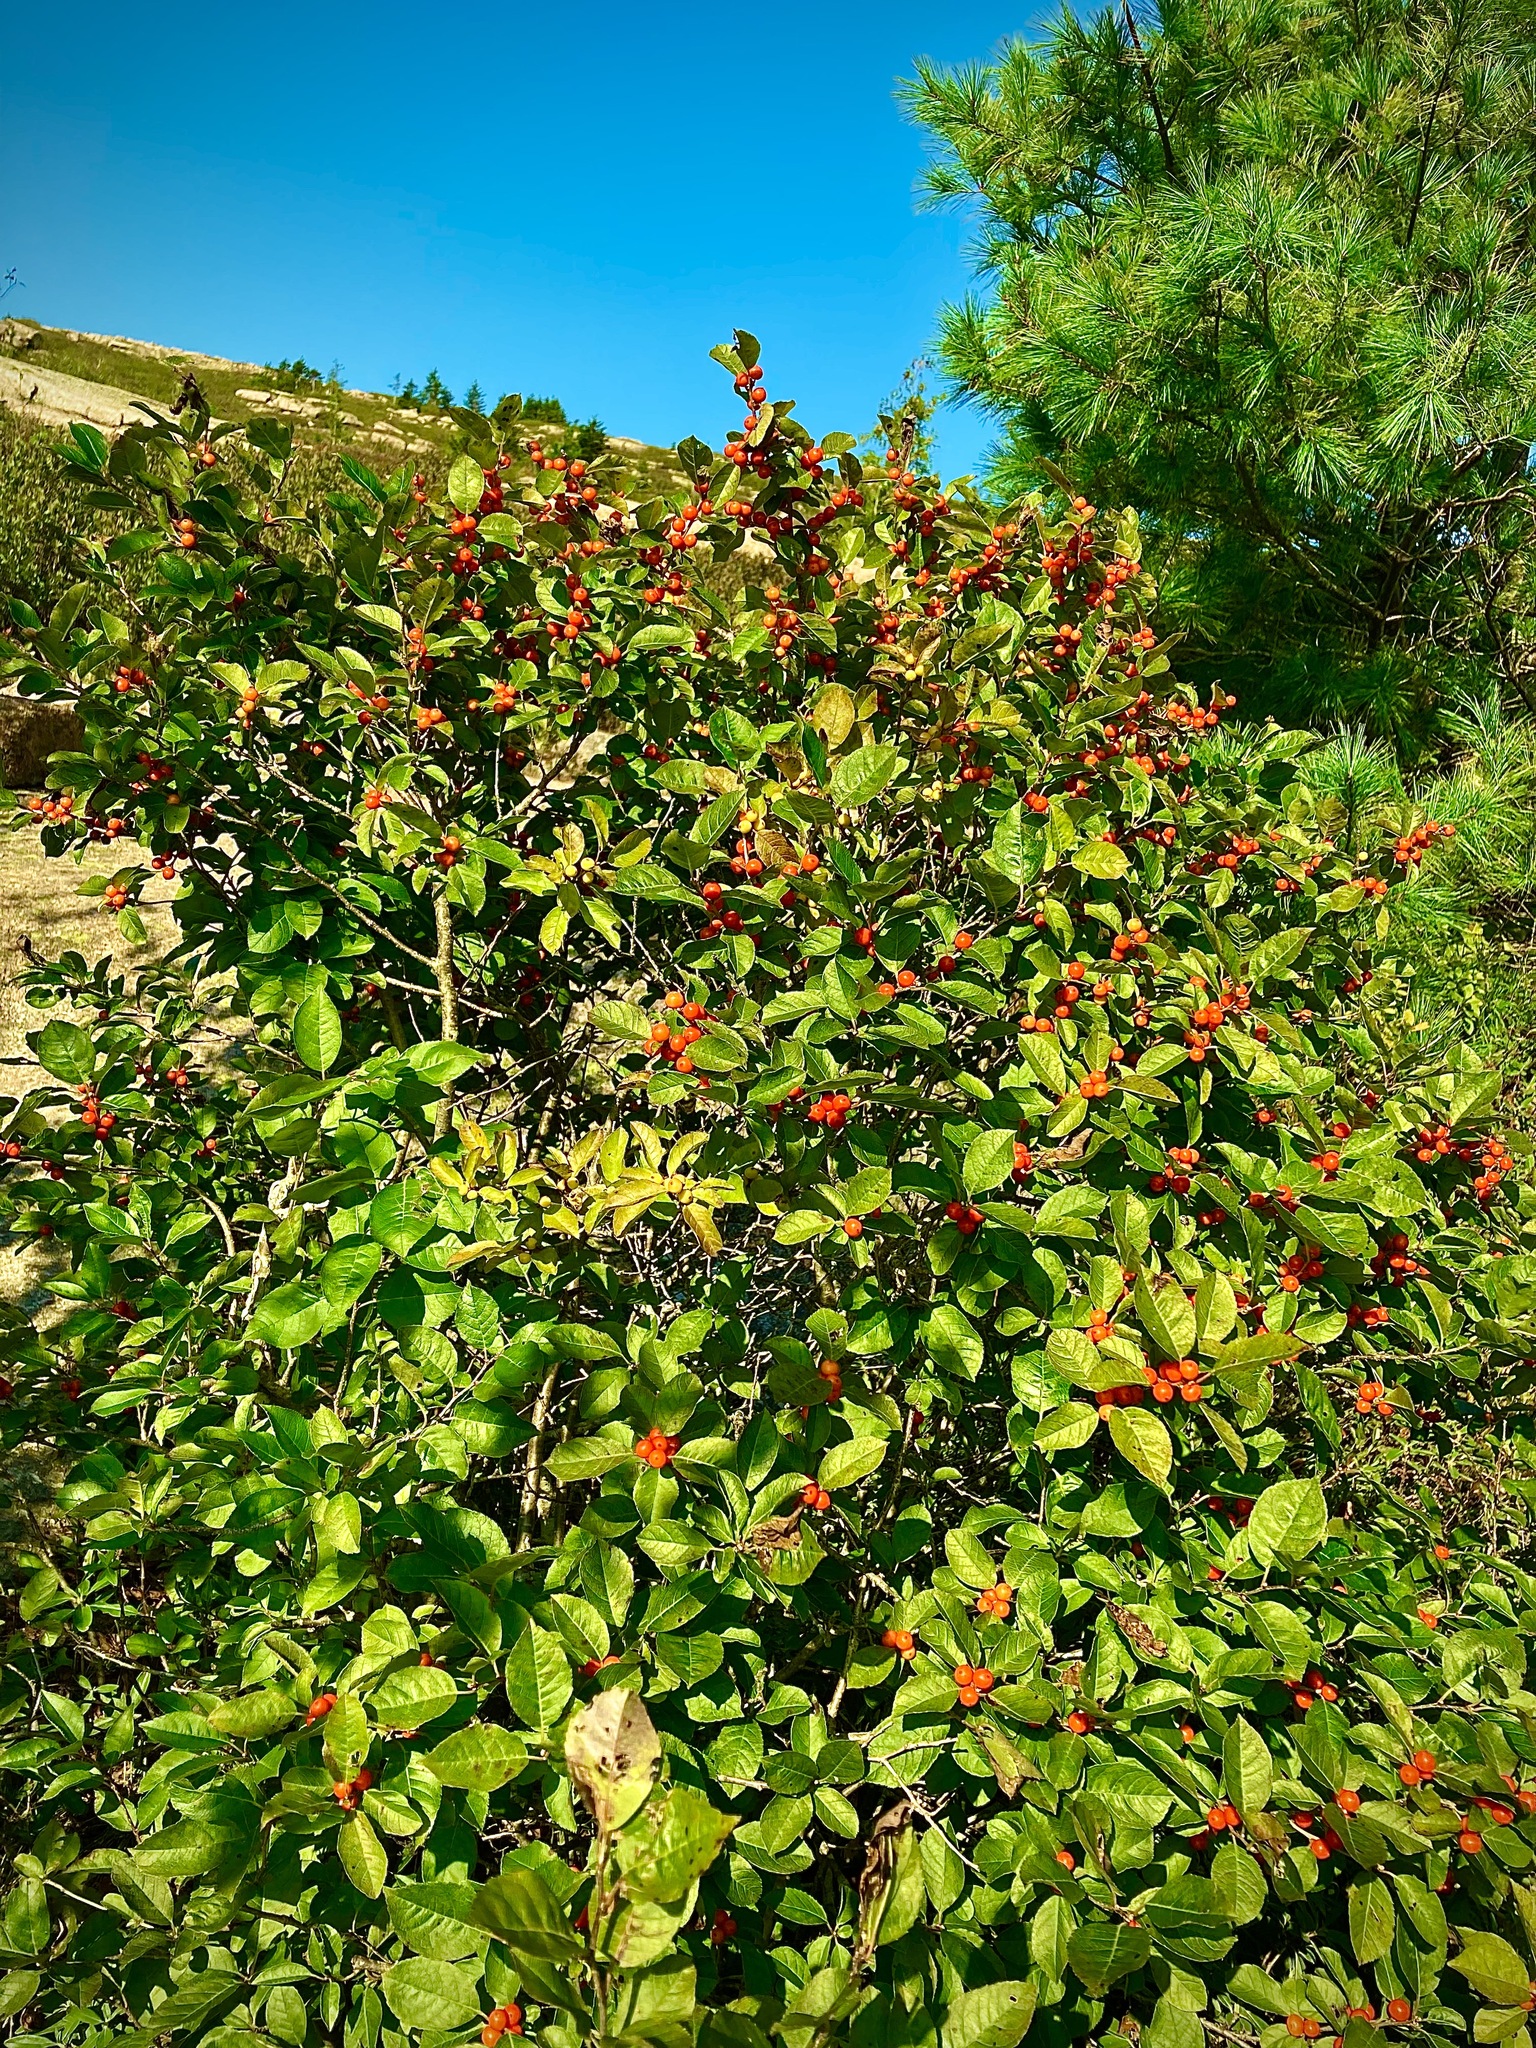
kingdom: Plantae
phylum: Tracheophyta
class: Magnoliopsida
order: Aquifoliales
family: Aquifoliaceae
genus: Ilex
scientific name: Ilex verticillata
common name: Virginia winterberry
